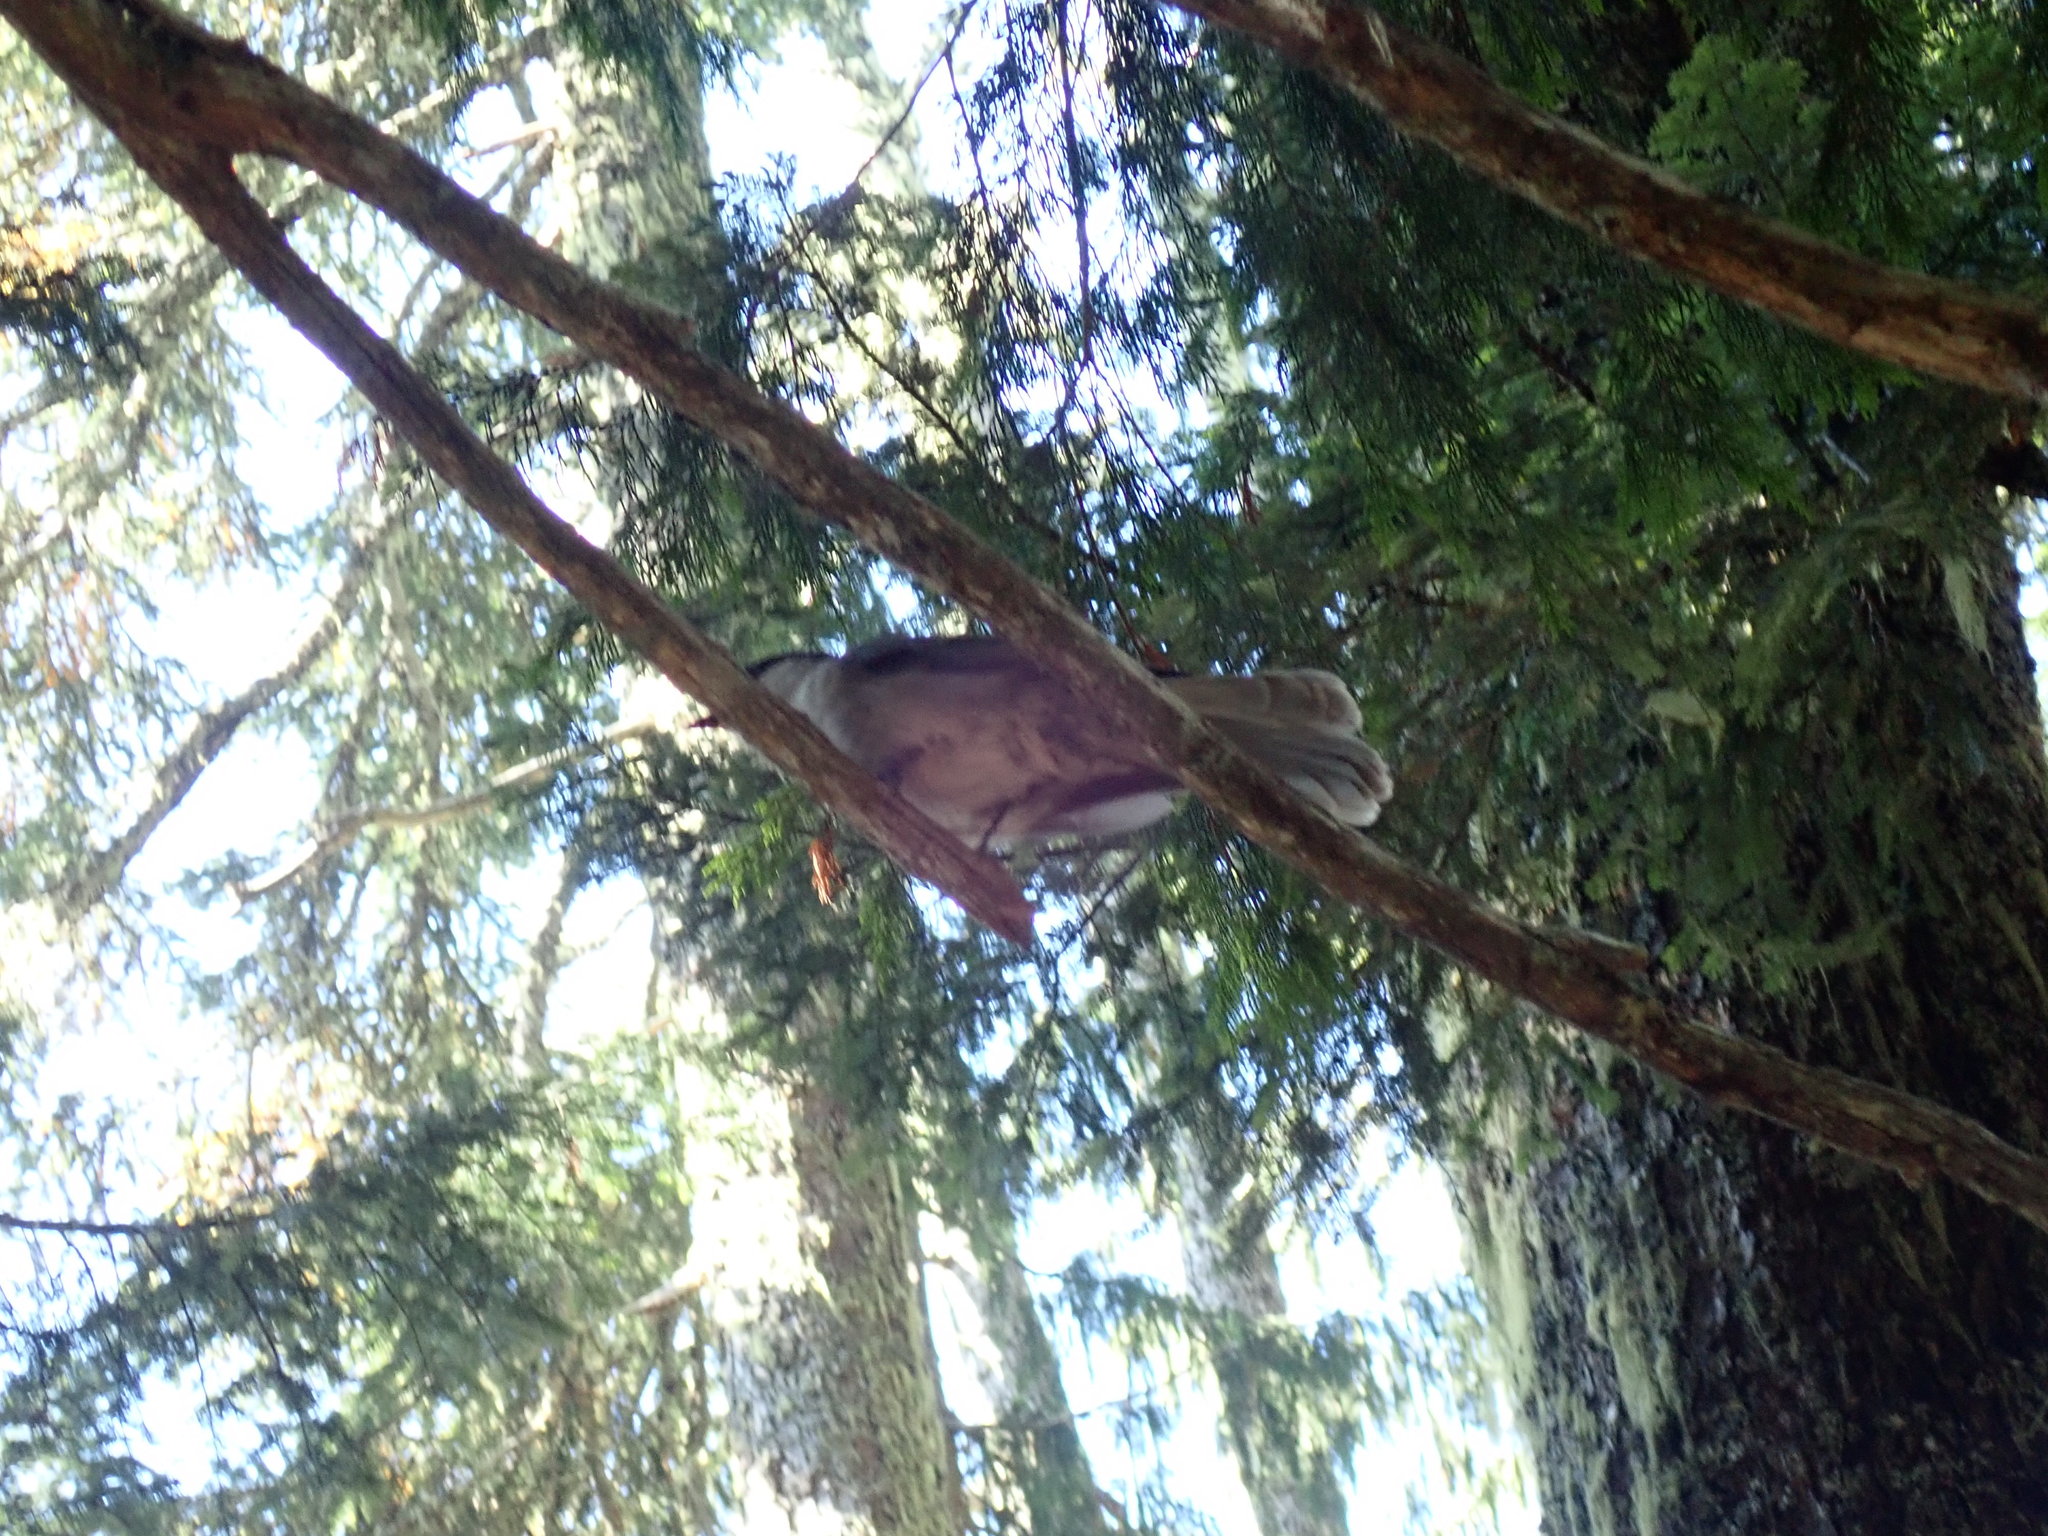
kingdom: Animalia
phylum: Chordata
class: Aves
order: Passeriformes
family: Corvidae
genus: Perisoreus
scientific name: Perisoreus canadensis
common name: Gray jay
